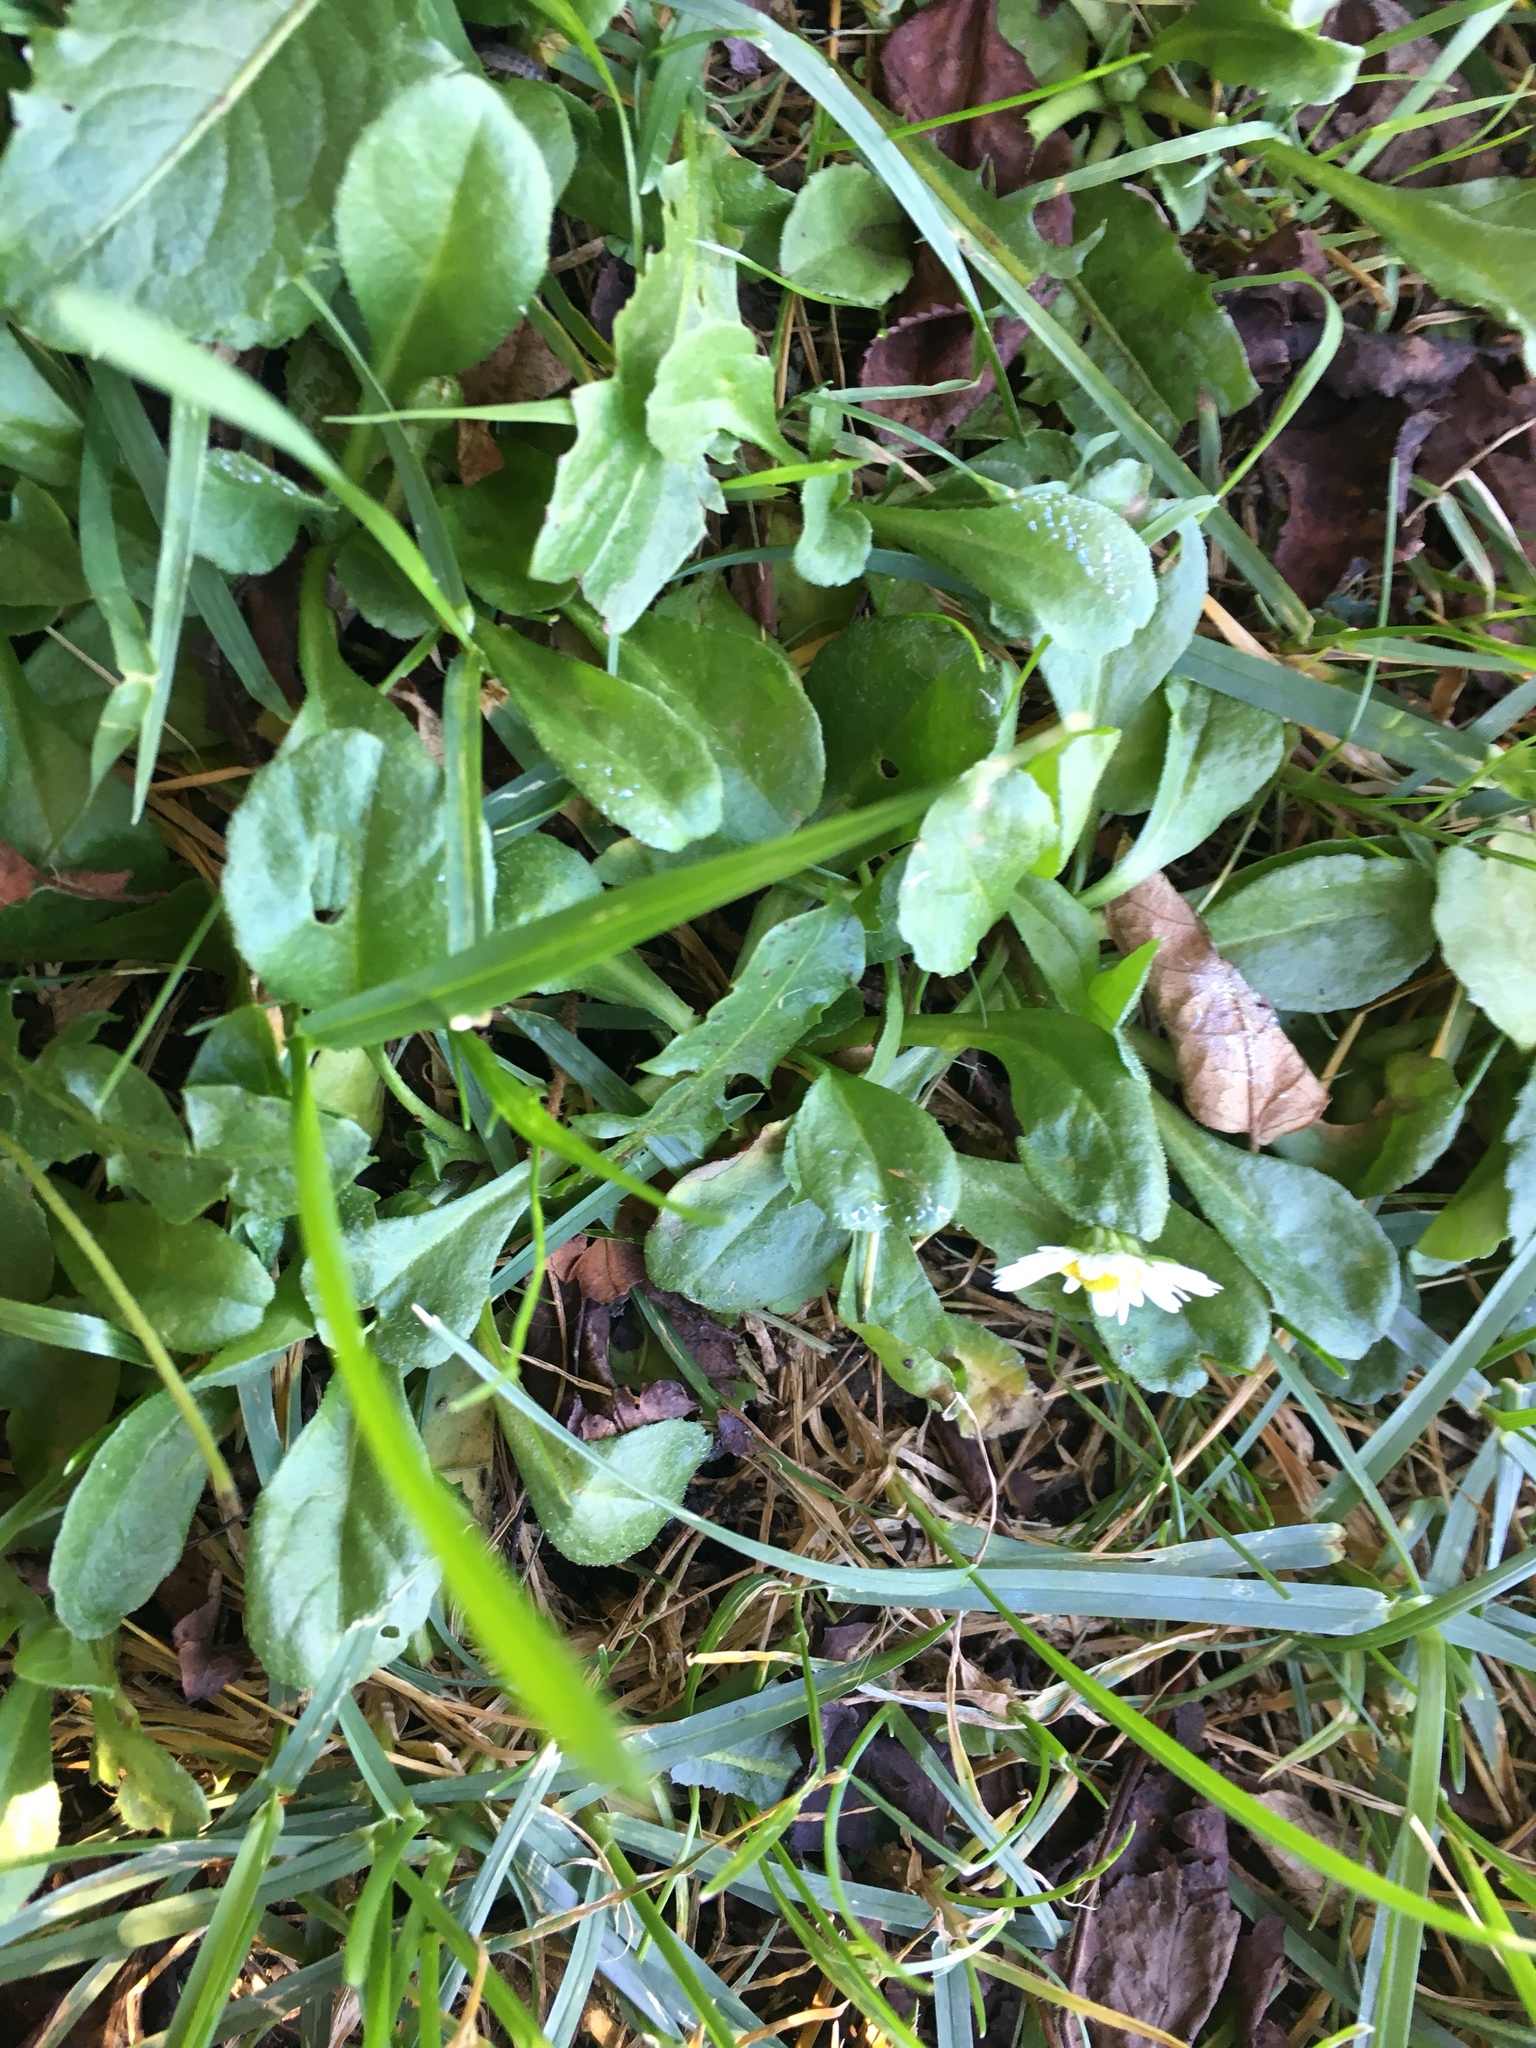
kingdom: Plantae
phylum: Tracheophyta
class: Magnoliopsida
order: Asterales
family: Asteraceae
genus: Bellis
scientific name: Bellis perennis
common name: Lawndaisy
